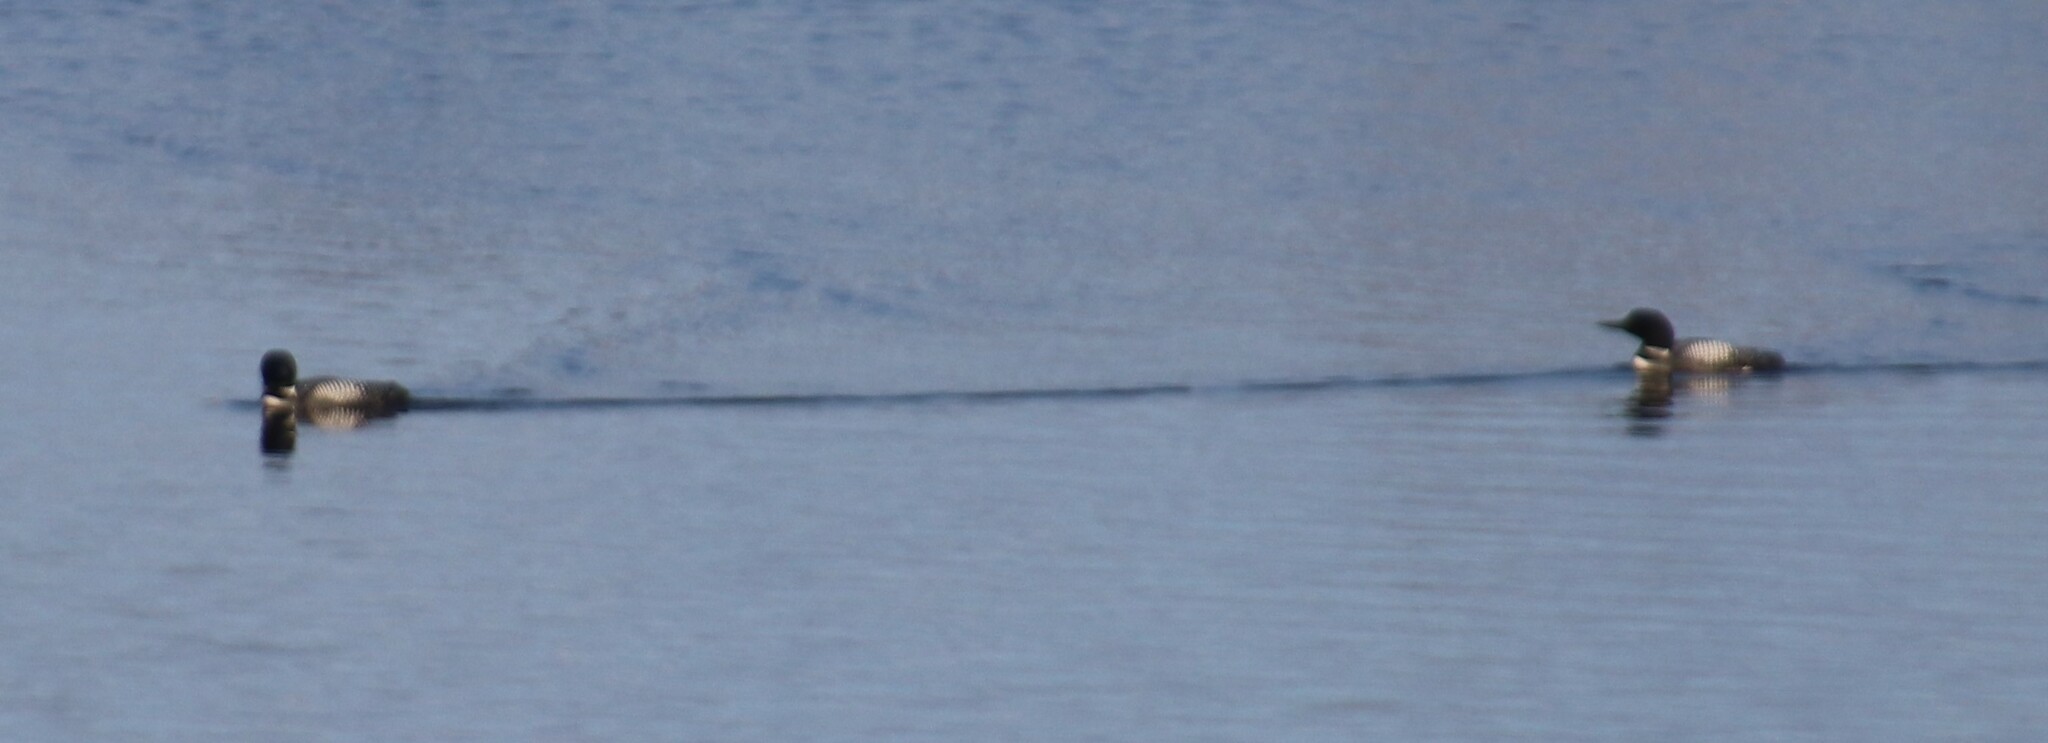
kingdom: Animalia
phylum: Chordata
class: Aves
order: Gaviiformes
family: Gaviidae
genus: Gavia
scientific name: Gavia immer
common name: Common loon
